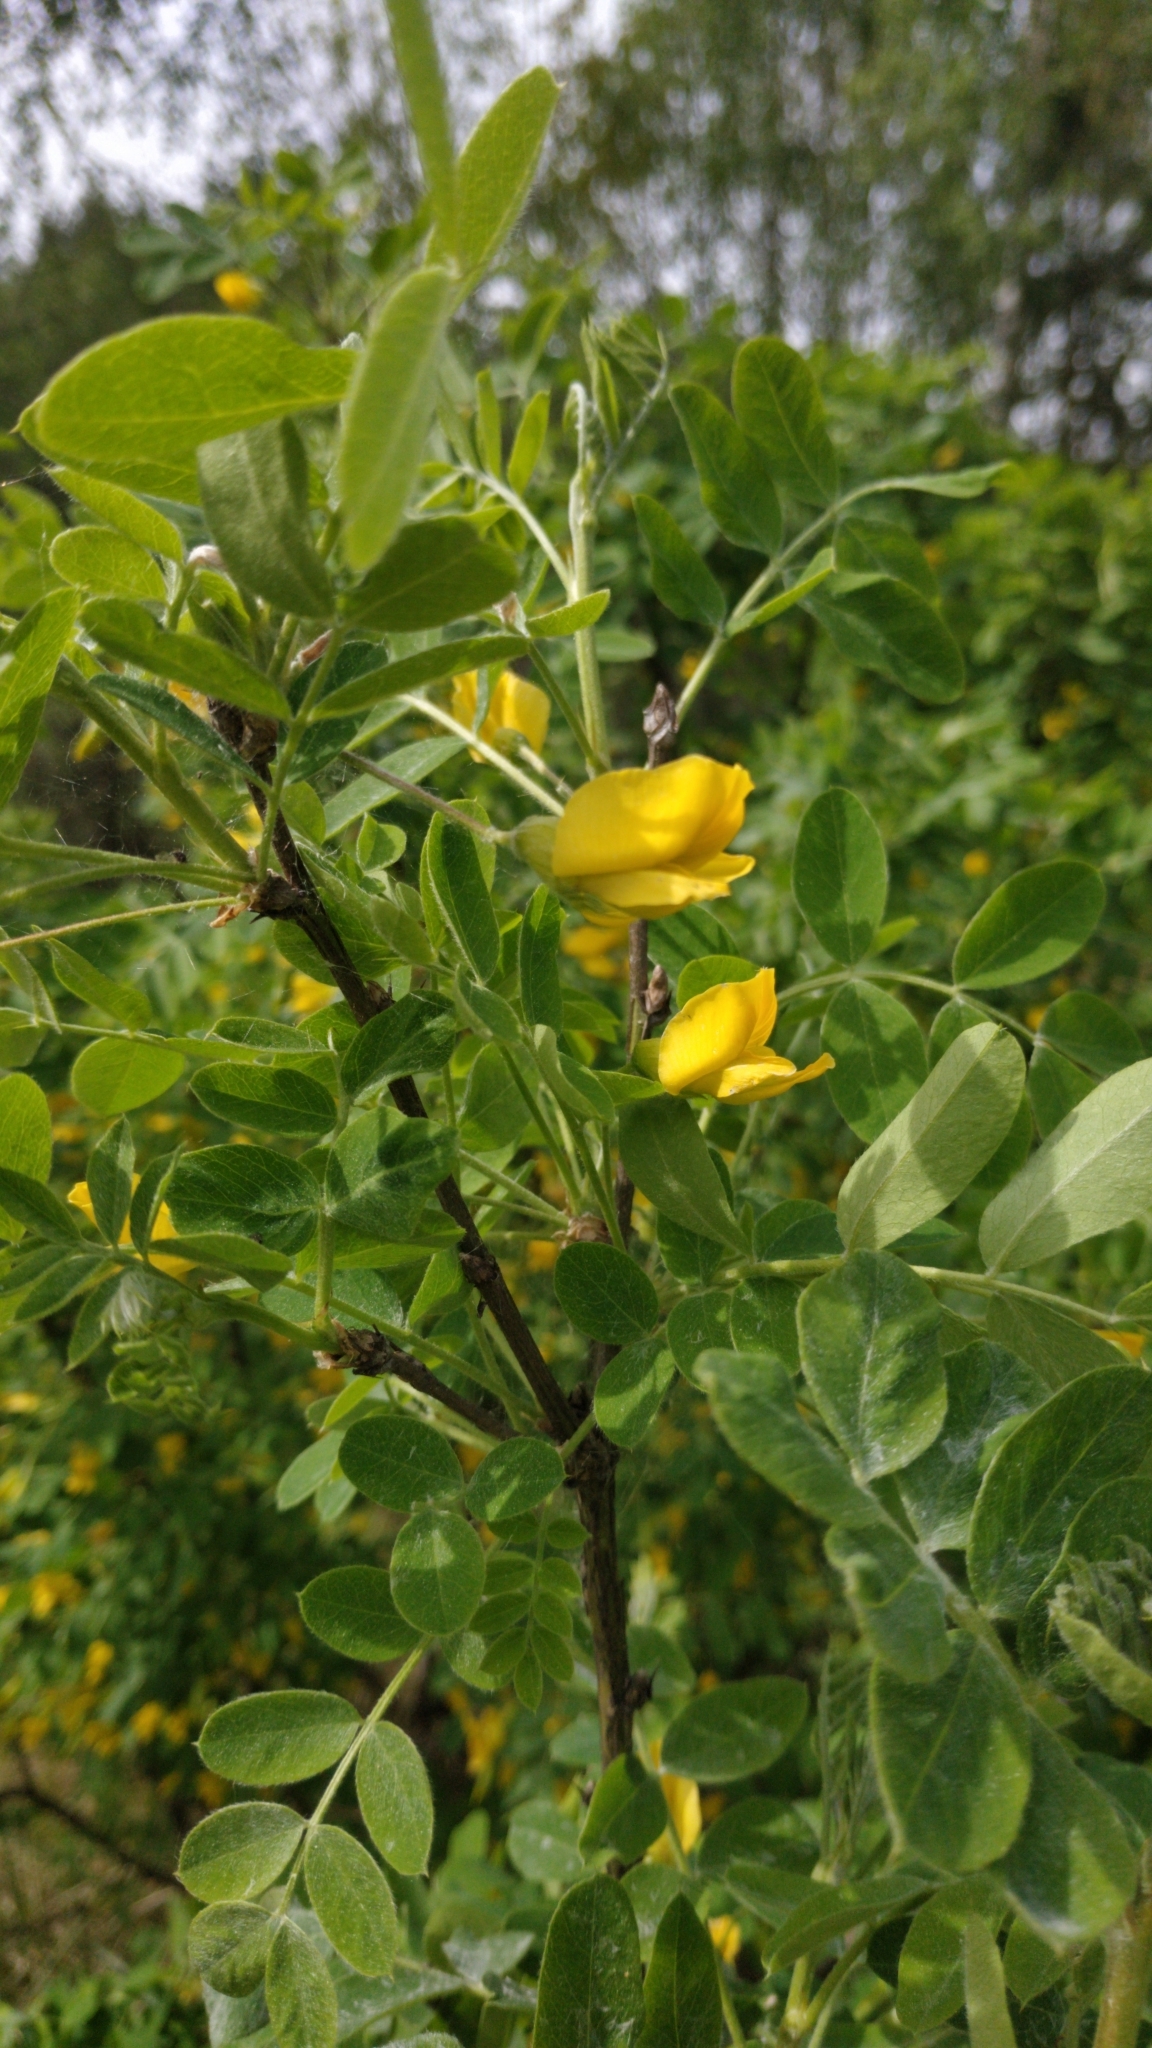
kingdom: Plantae
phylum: Tracheophyta
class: Magnoliopsida
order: Fabales
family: Fabaceae
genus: Caragana
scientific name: Caragana arborescens
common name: Siberian peashrub
